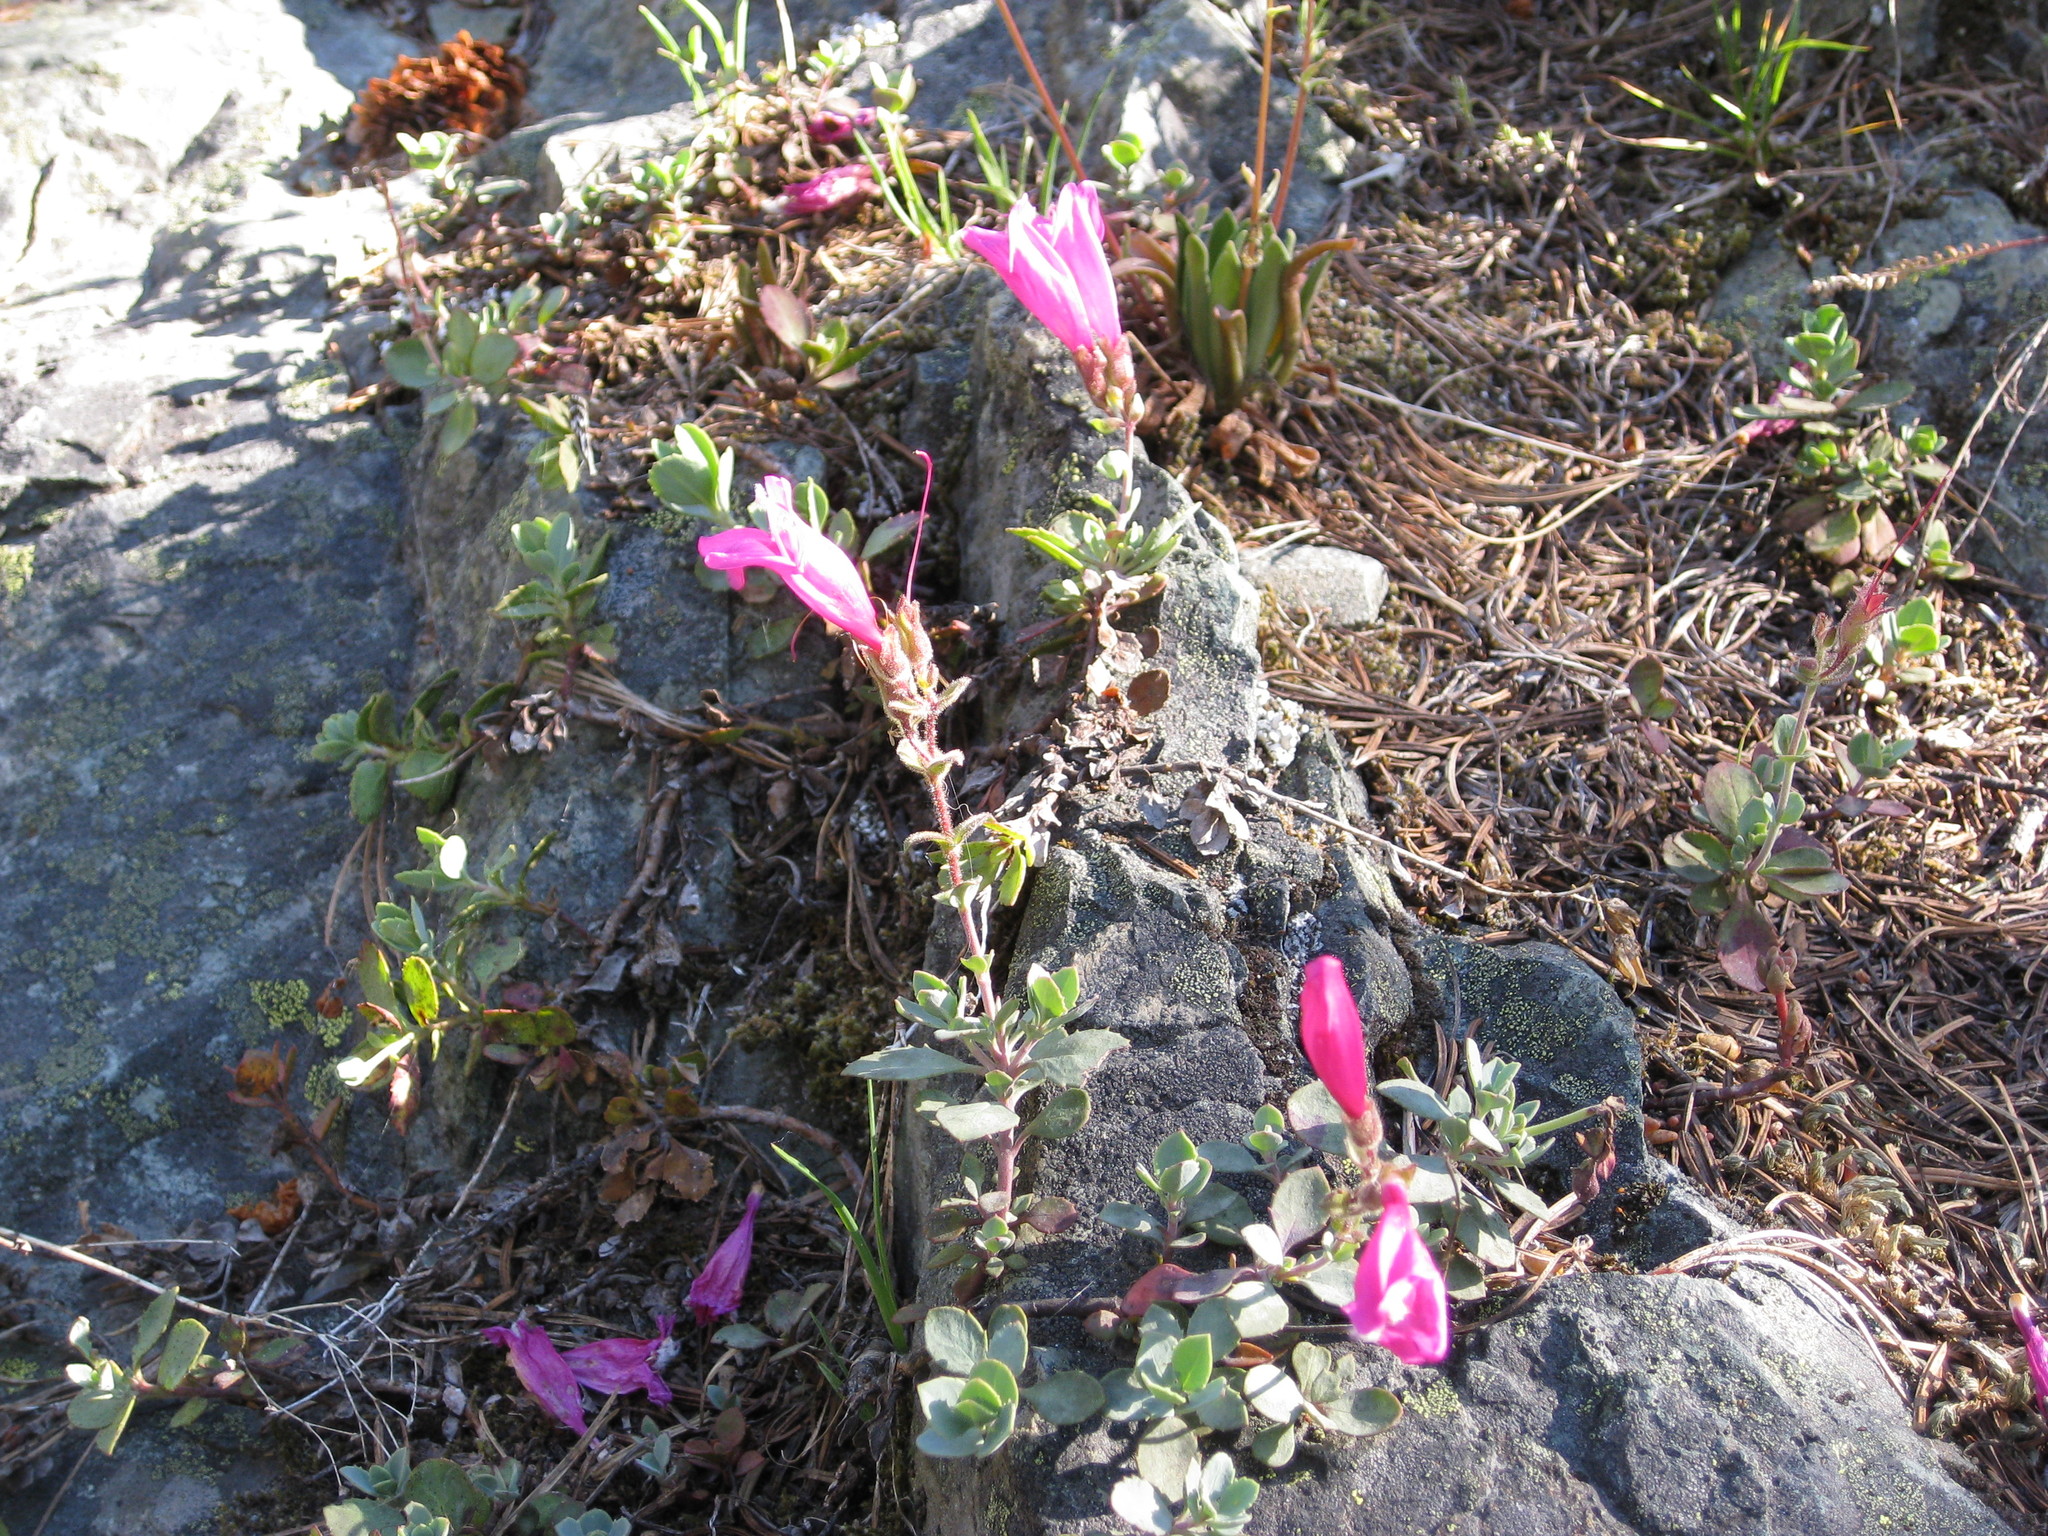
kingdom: Plantae
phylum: Tracheophyta
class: Magnoliopsida
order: Lamiales
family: Plantaginaceae
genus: Penstemon
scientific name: Penstemon rupicola
